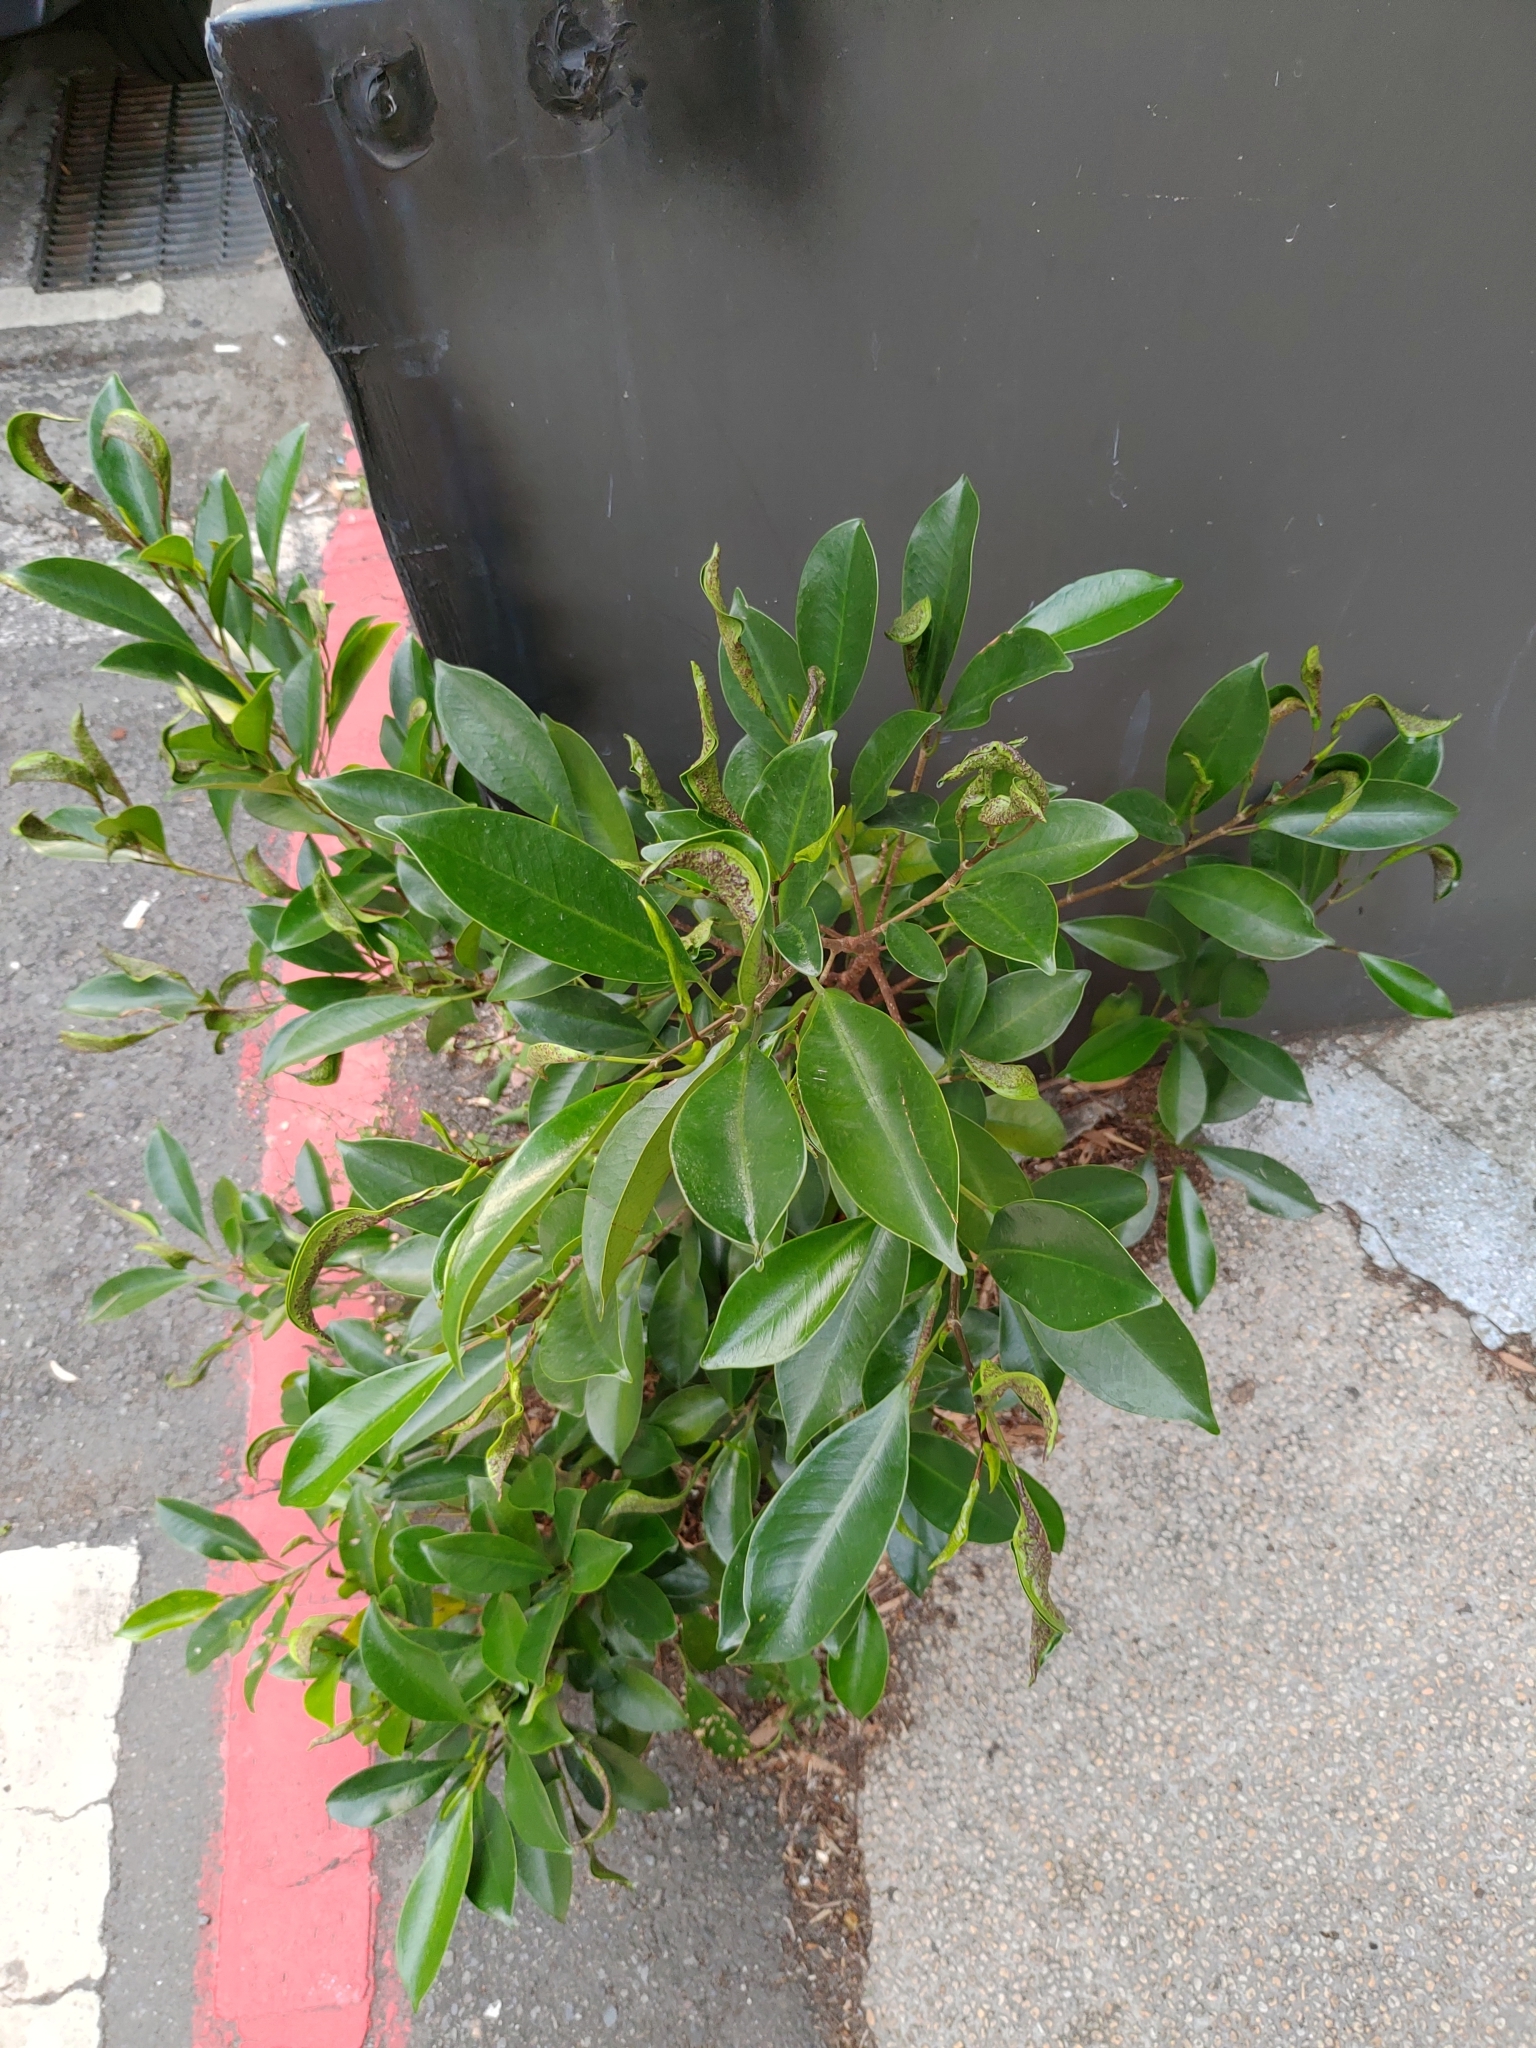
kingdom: Plantae
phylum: Tracheophyta
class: Magnoliopsida
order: Rosales
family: Moraceae
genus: Ficus
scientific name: Ficus microcarpa
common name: Chinese banyan
